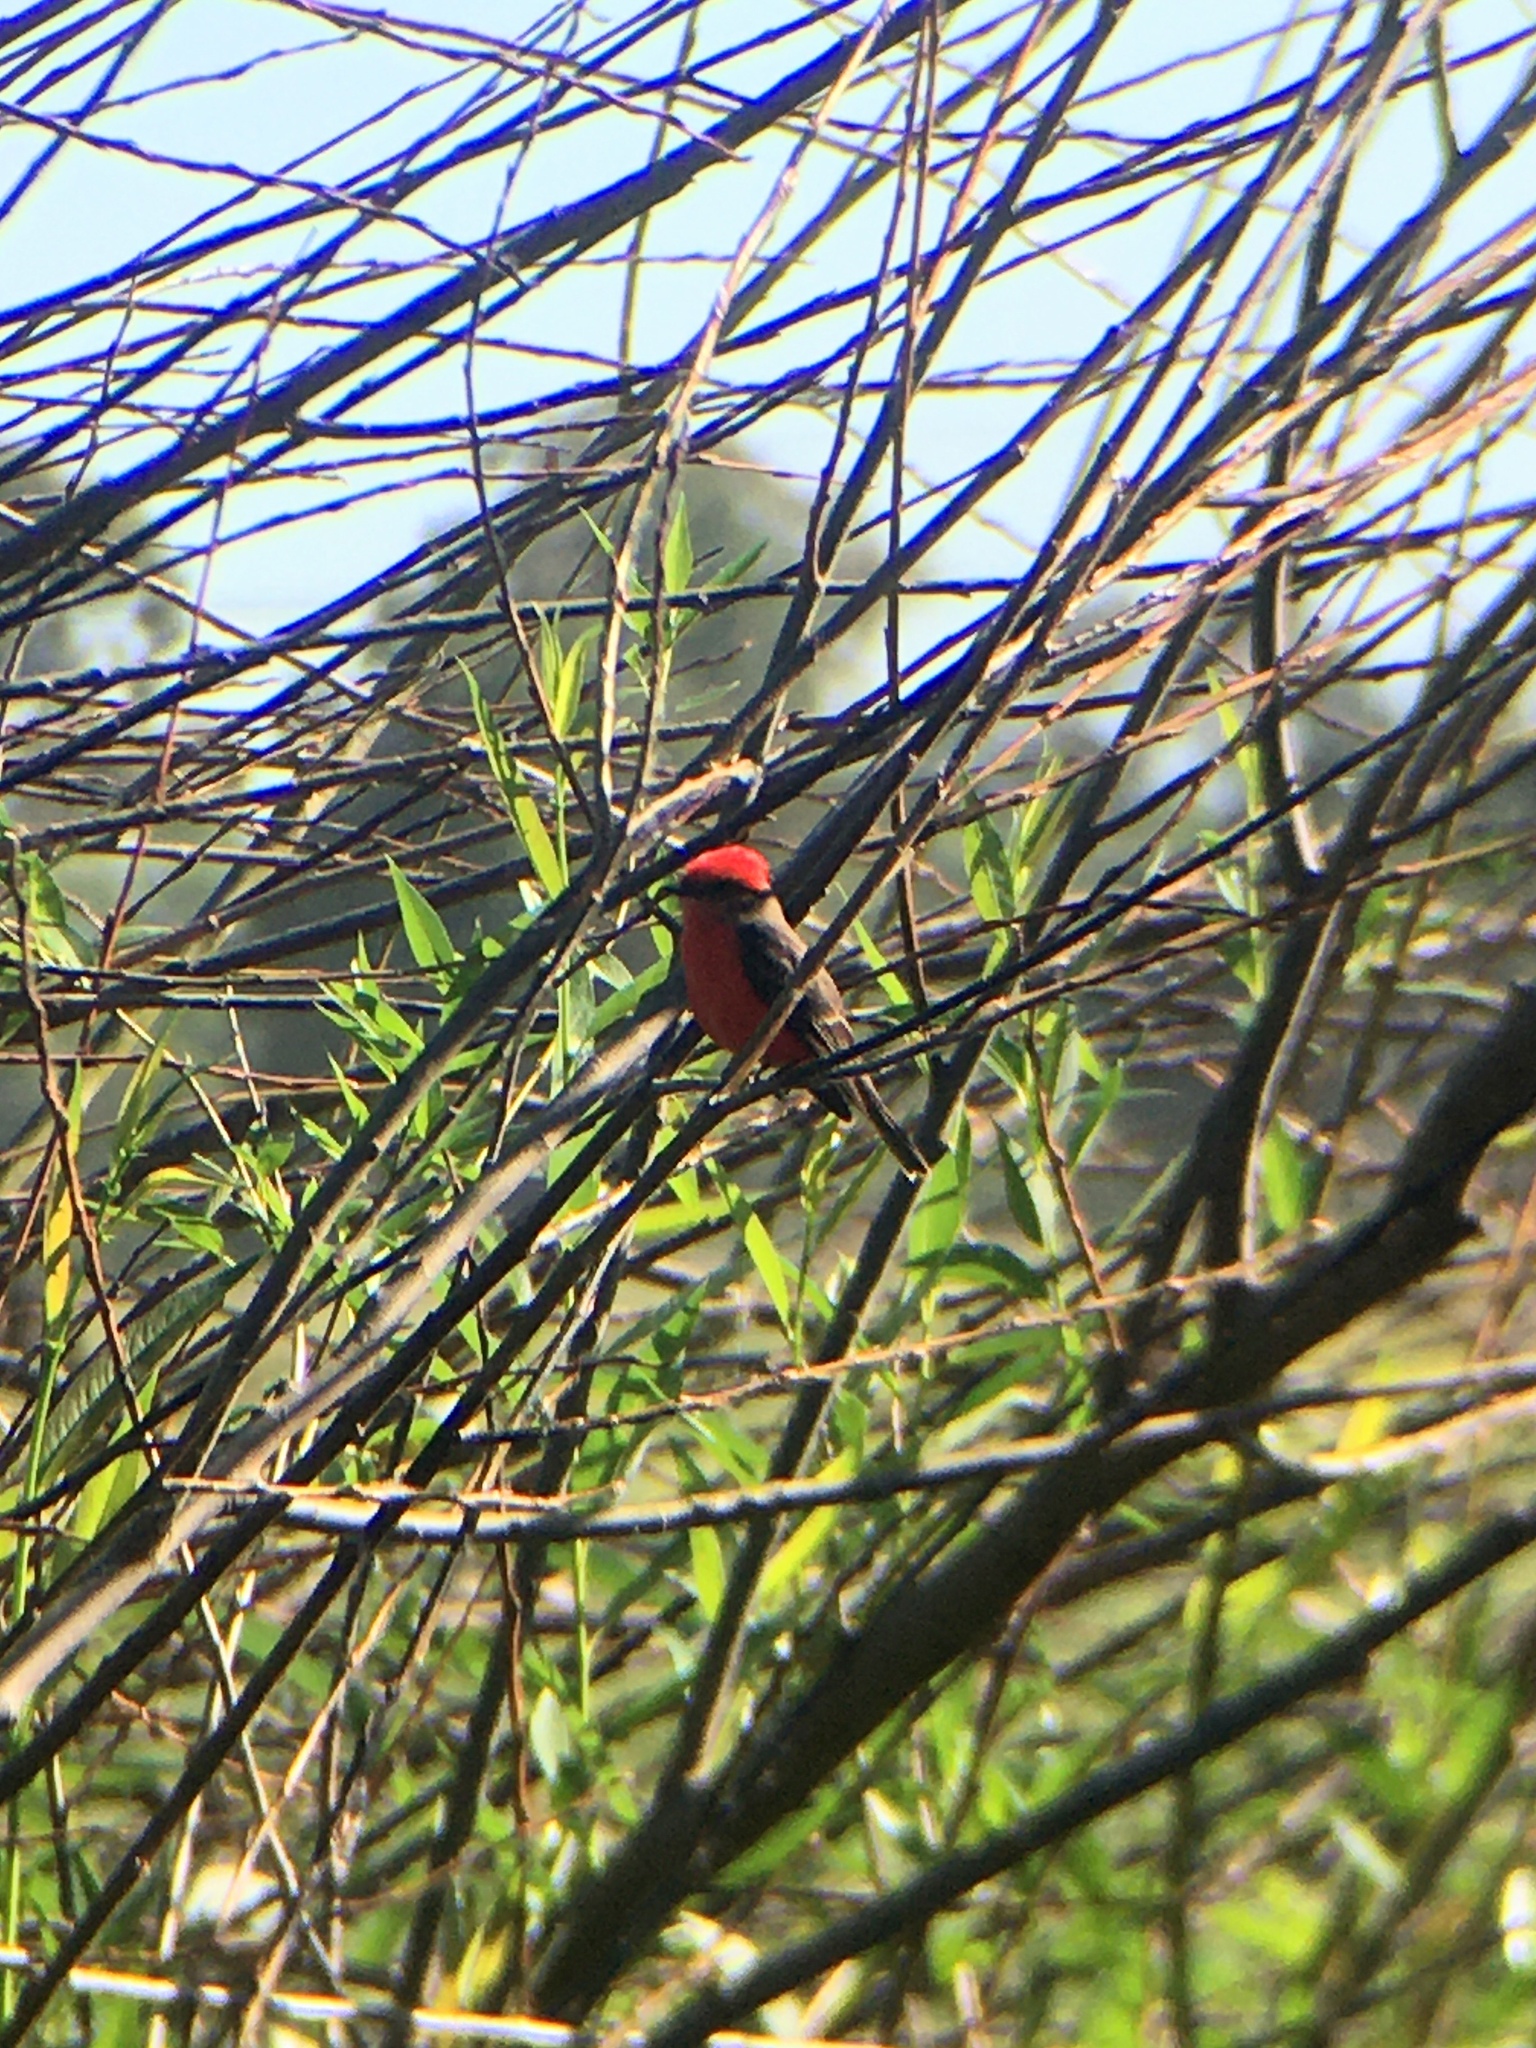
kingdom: Animalia
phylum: Chordata
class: Aves
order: Passeriformes
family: Tyrannidae
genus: Pyrocephalus
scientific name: Pyrocephalus rubinus
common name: Vermilion flycatcher
